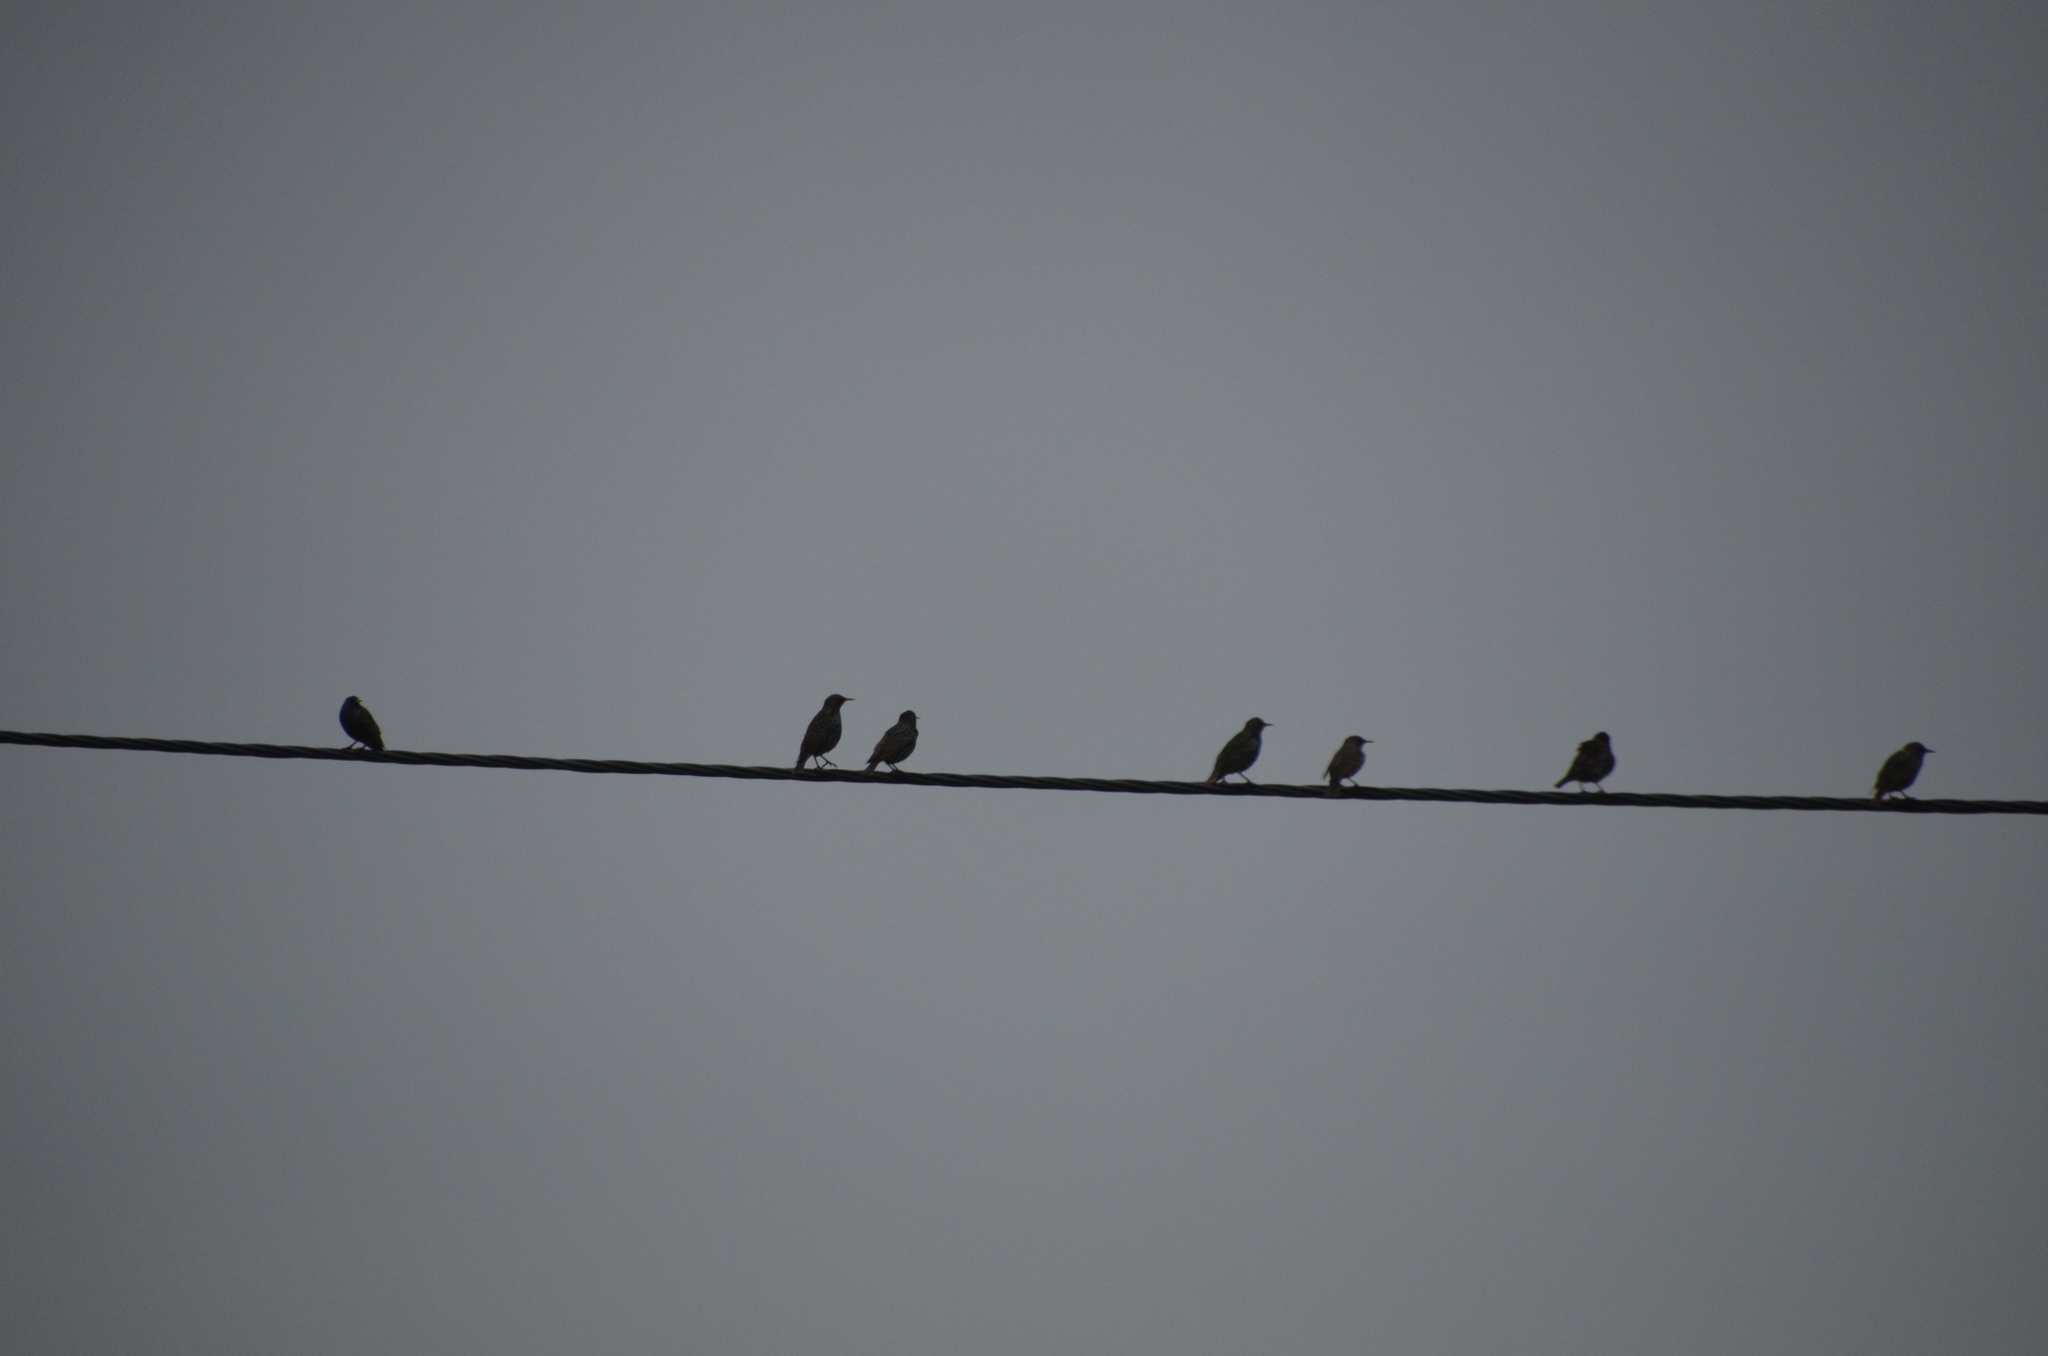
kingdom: Animalia
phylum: Chordata
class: Aves
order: Passeriformes
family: Sturnidae
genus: Sturnus
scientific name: Sturnus vulgaris
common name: Common starling
